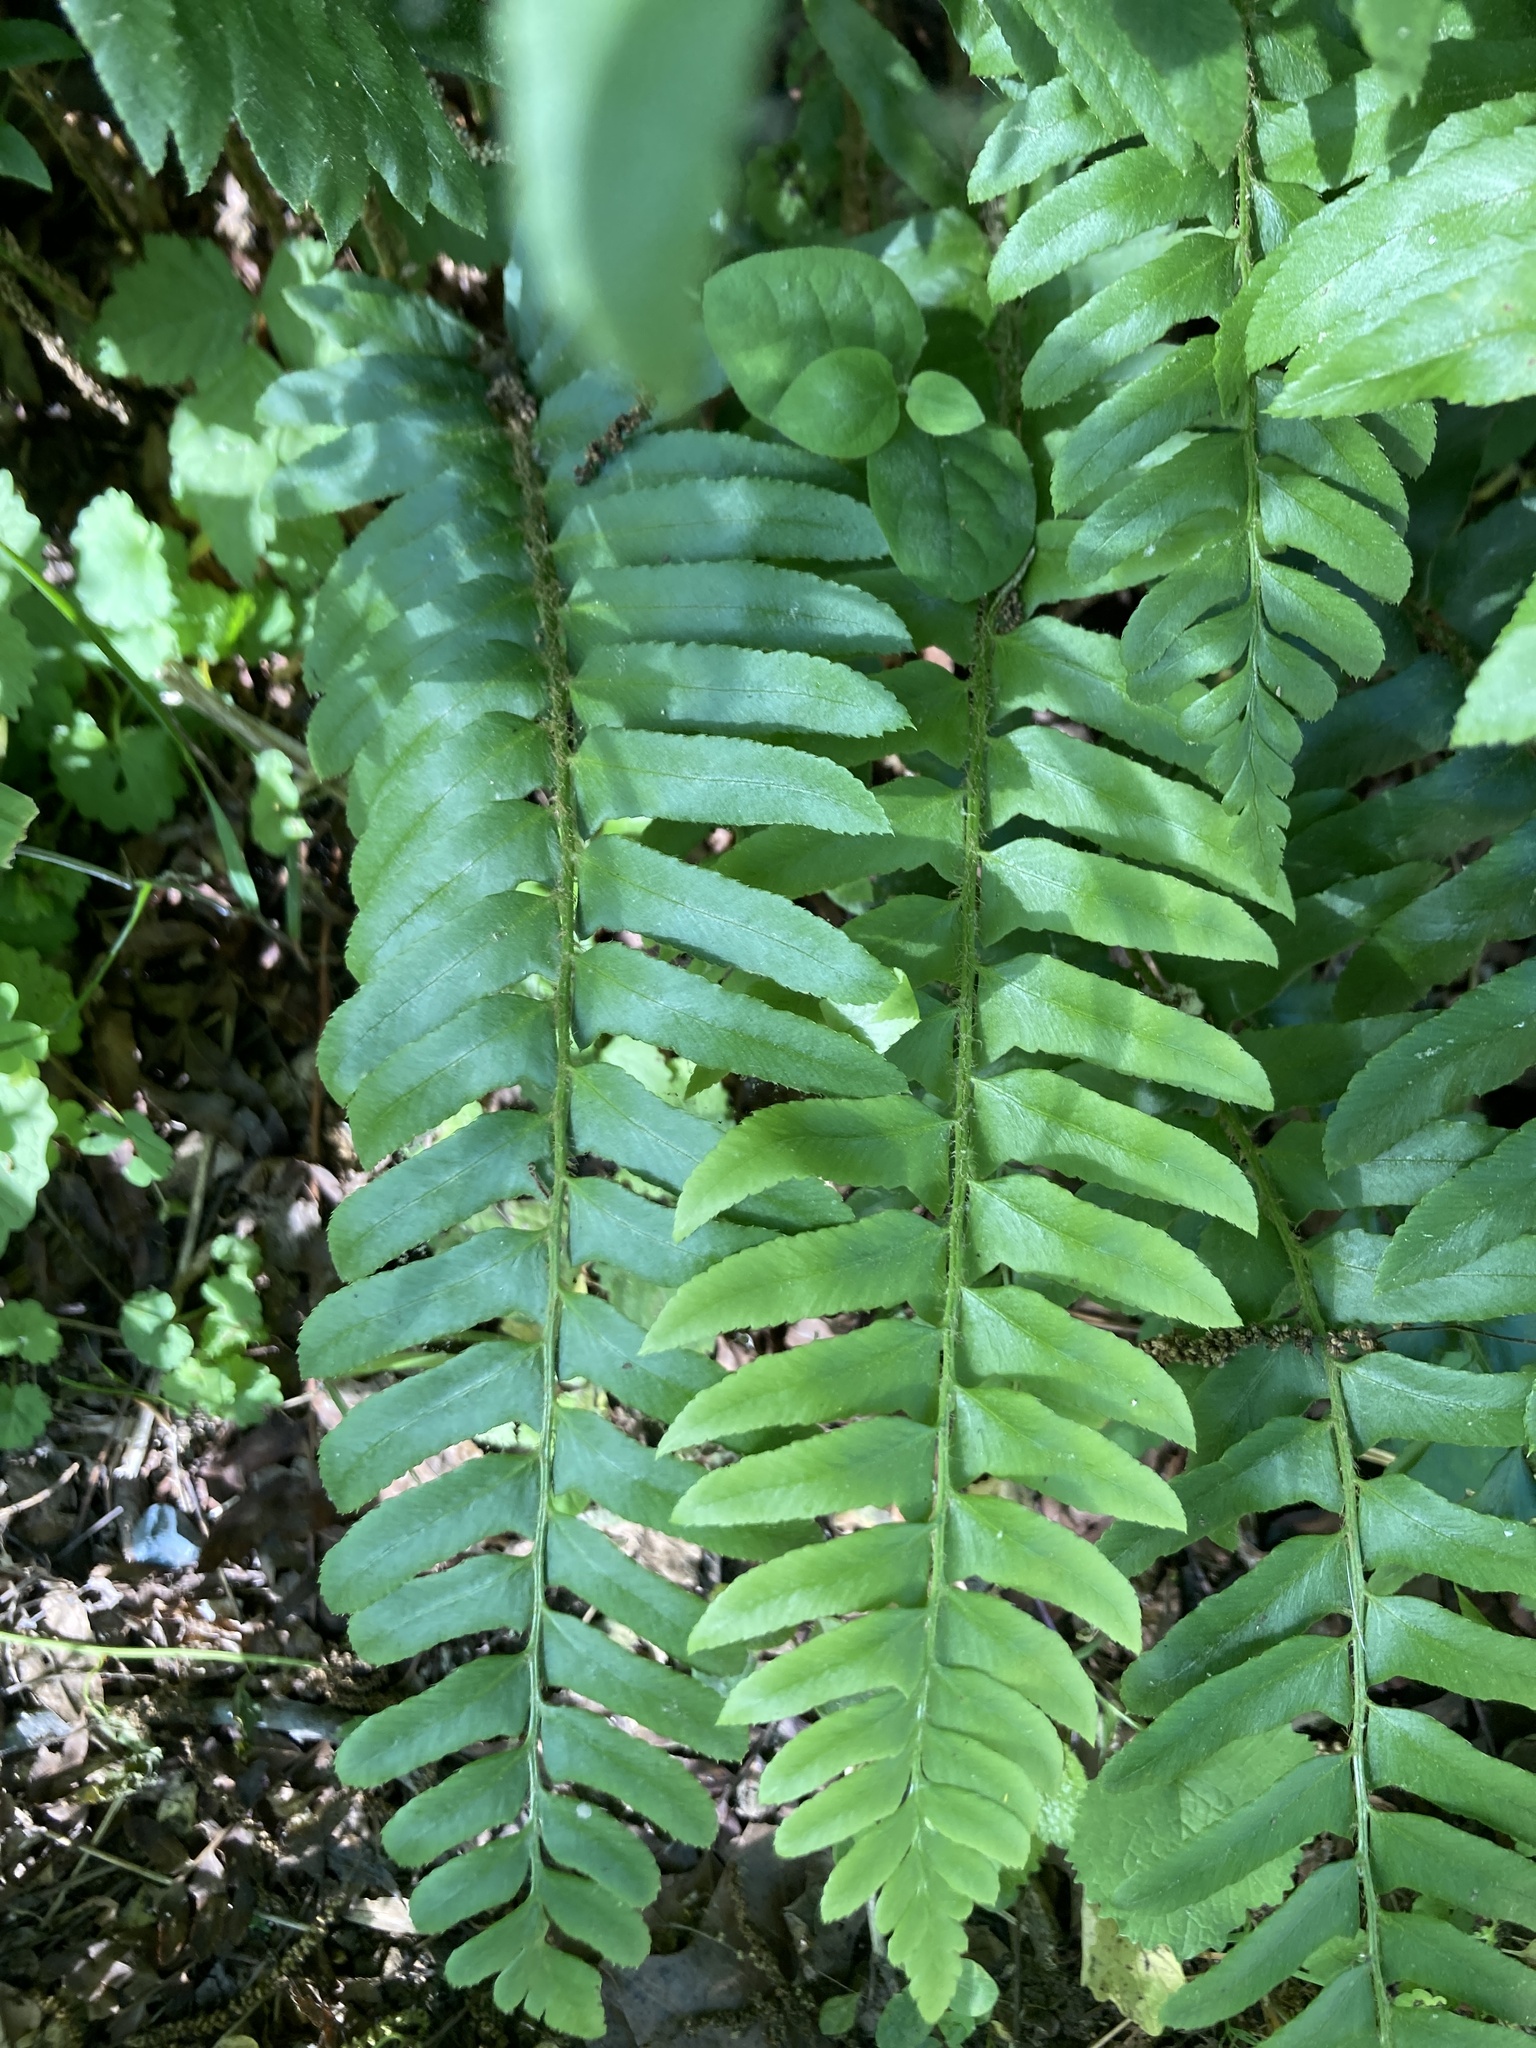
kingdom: Plantae
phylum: Tracheophyta
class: Polypodiopsida
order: Polypodiales
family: Dryopteridaceae
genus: Polystichum
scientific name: Polystichum acrostichoides
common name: Christmas fern
